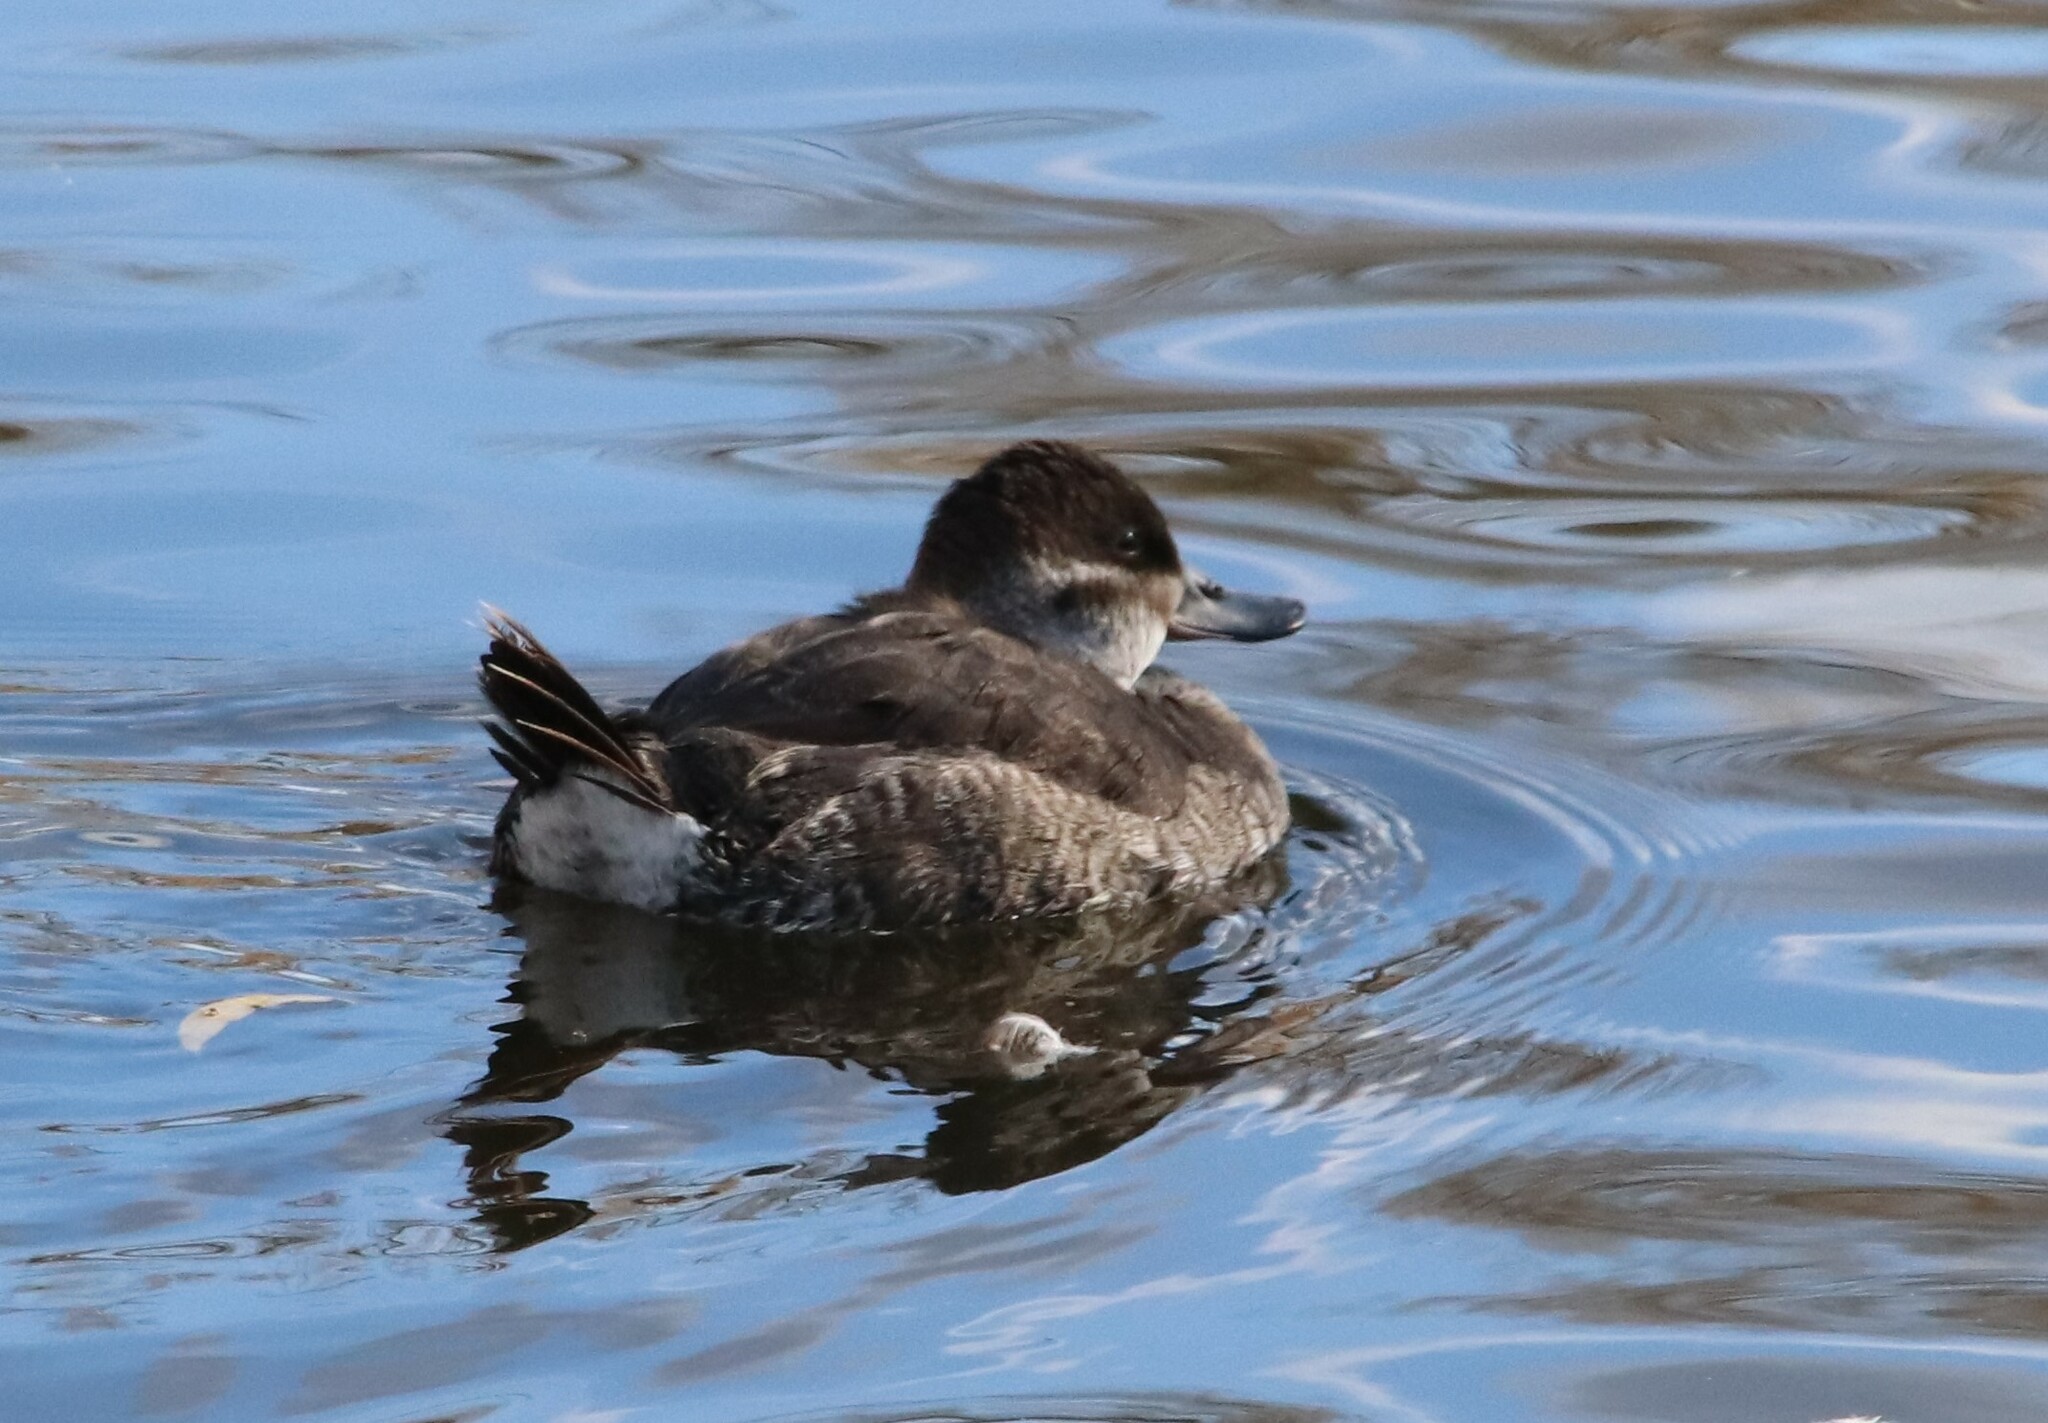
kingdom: Animalia
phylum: Chordata
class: Aves
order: Anseriformes
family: Anatidae
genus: Oxyura
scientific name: Oxyura jamaicensis
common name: Ruddy duck
